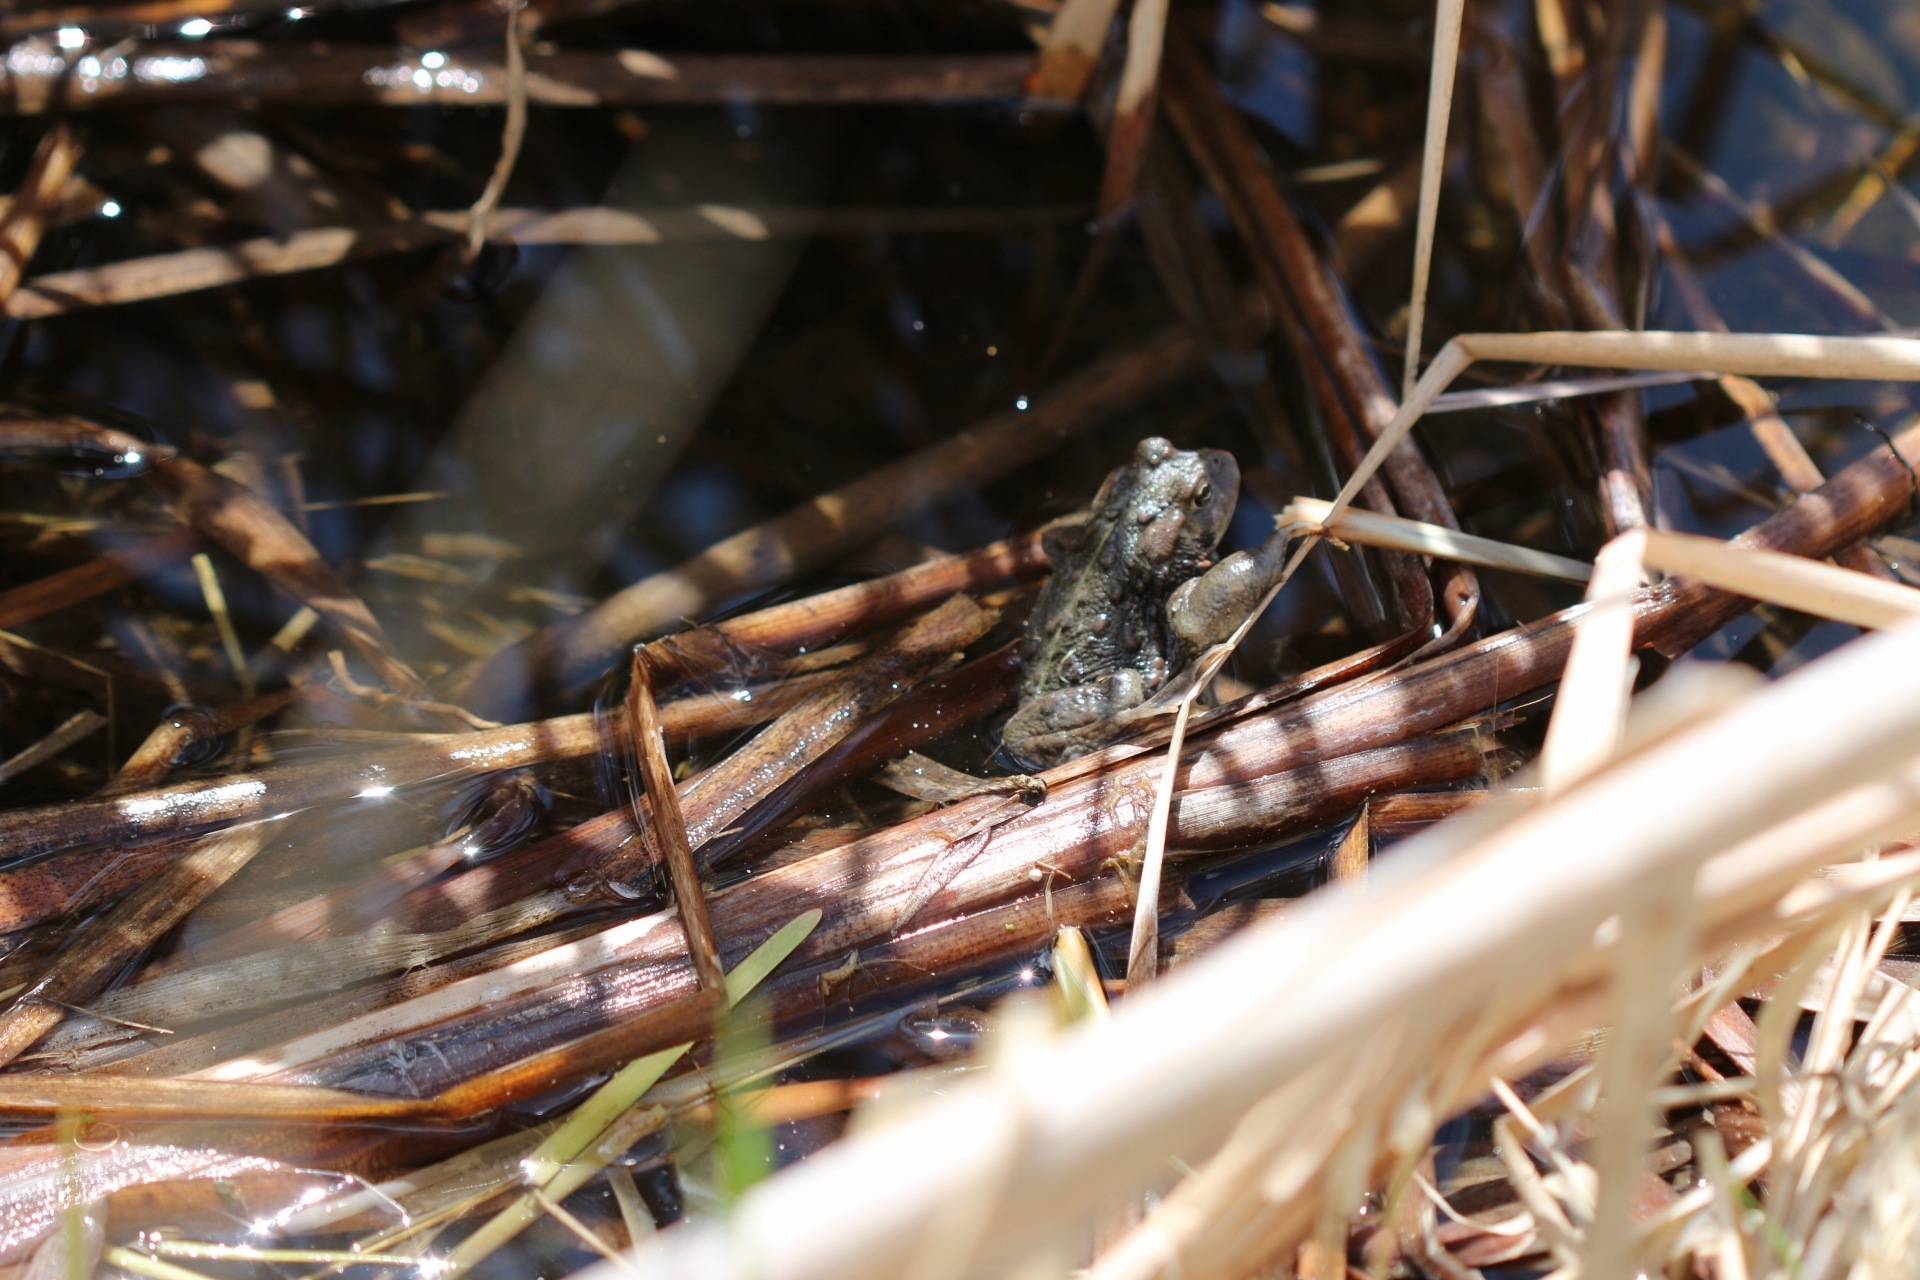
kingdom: Animalia
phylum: Chordata
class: Amphibia
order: Anura
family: Bufonidae
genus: Anaxyrus
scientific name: Anaxyrus boreas
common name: Western toad
